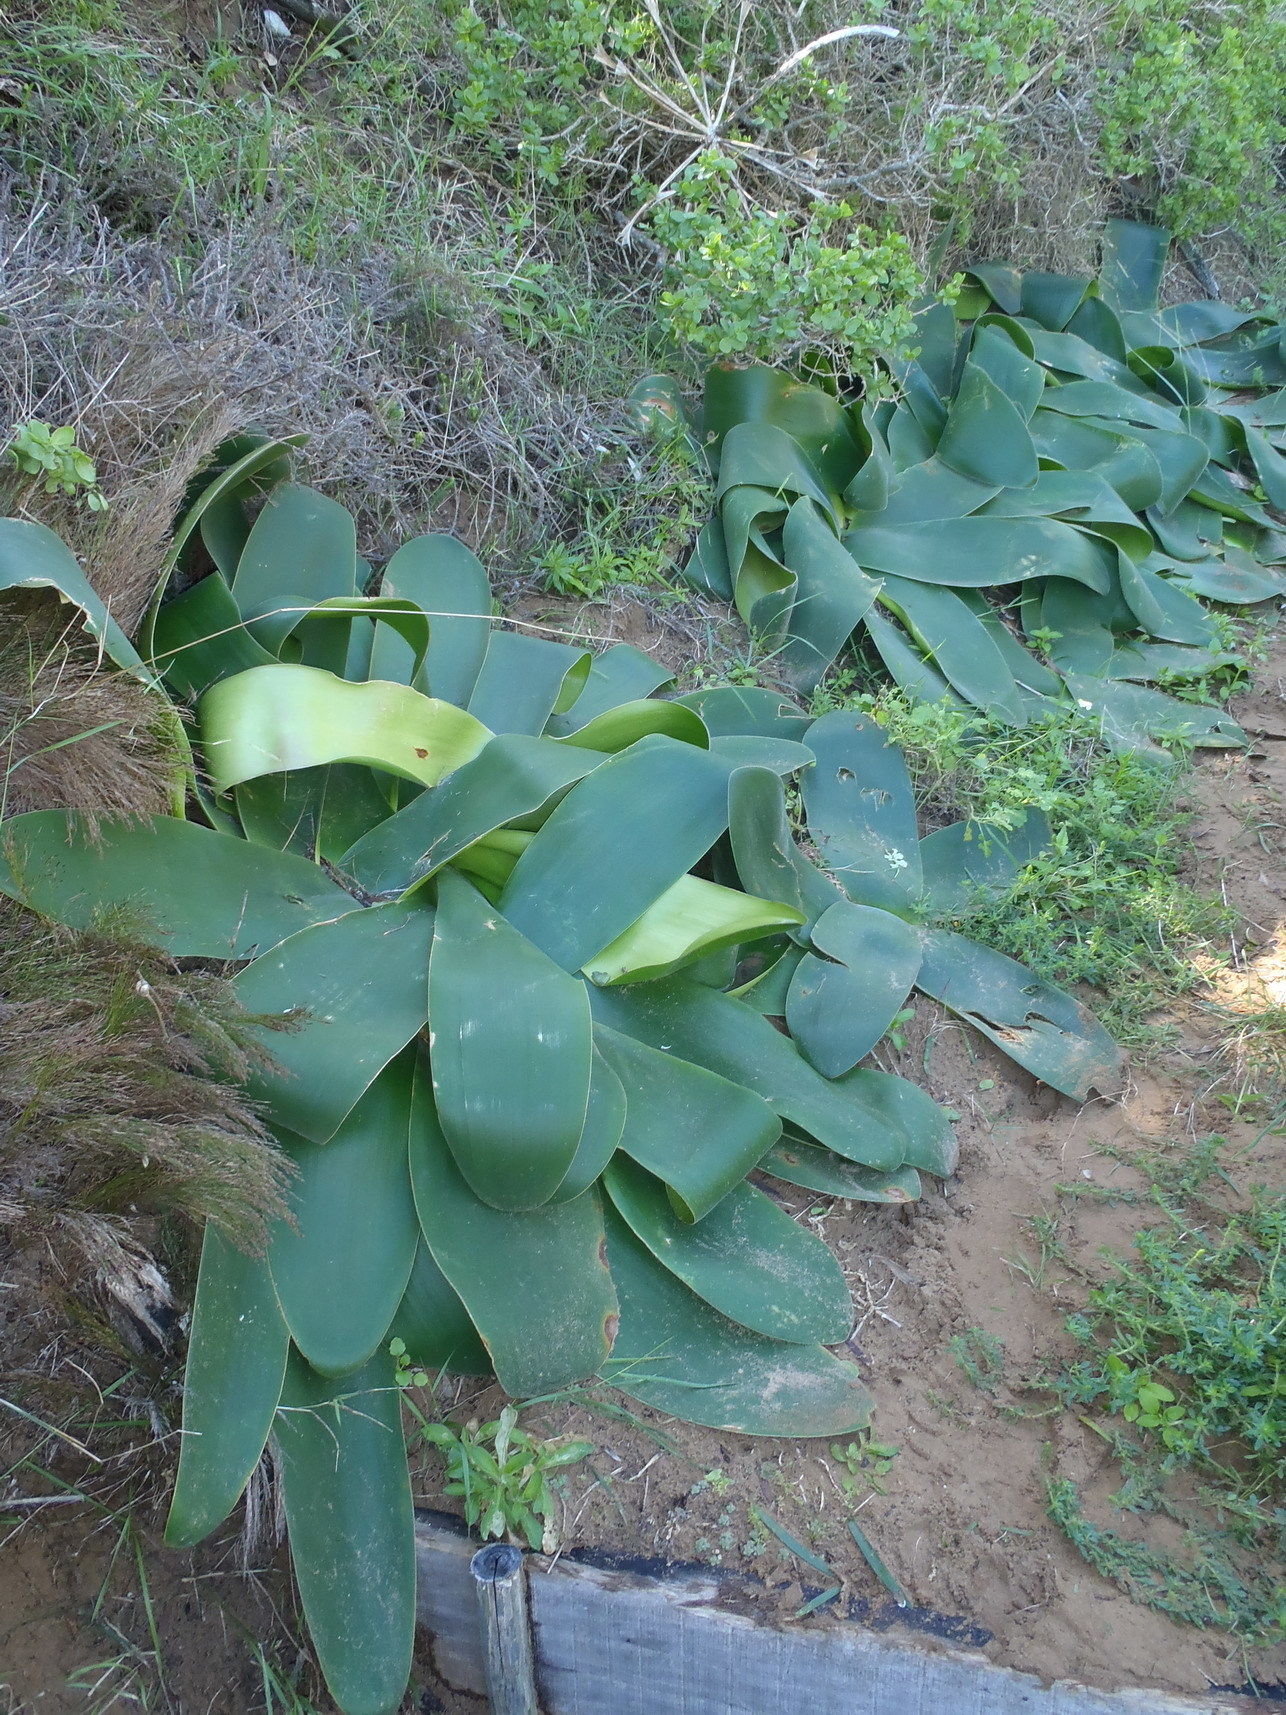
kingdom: Plantae
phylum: Tracheophyta
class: Liliopsida
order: Asparagales
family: Amaryllidaceae
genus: Brunsvigia
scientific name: Brunsvigia orientalis
